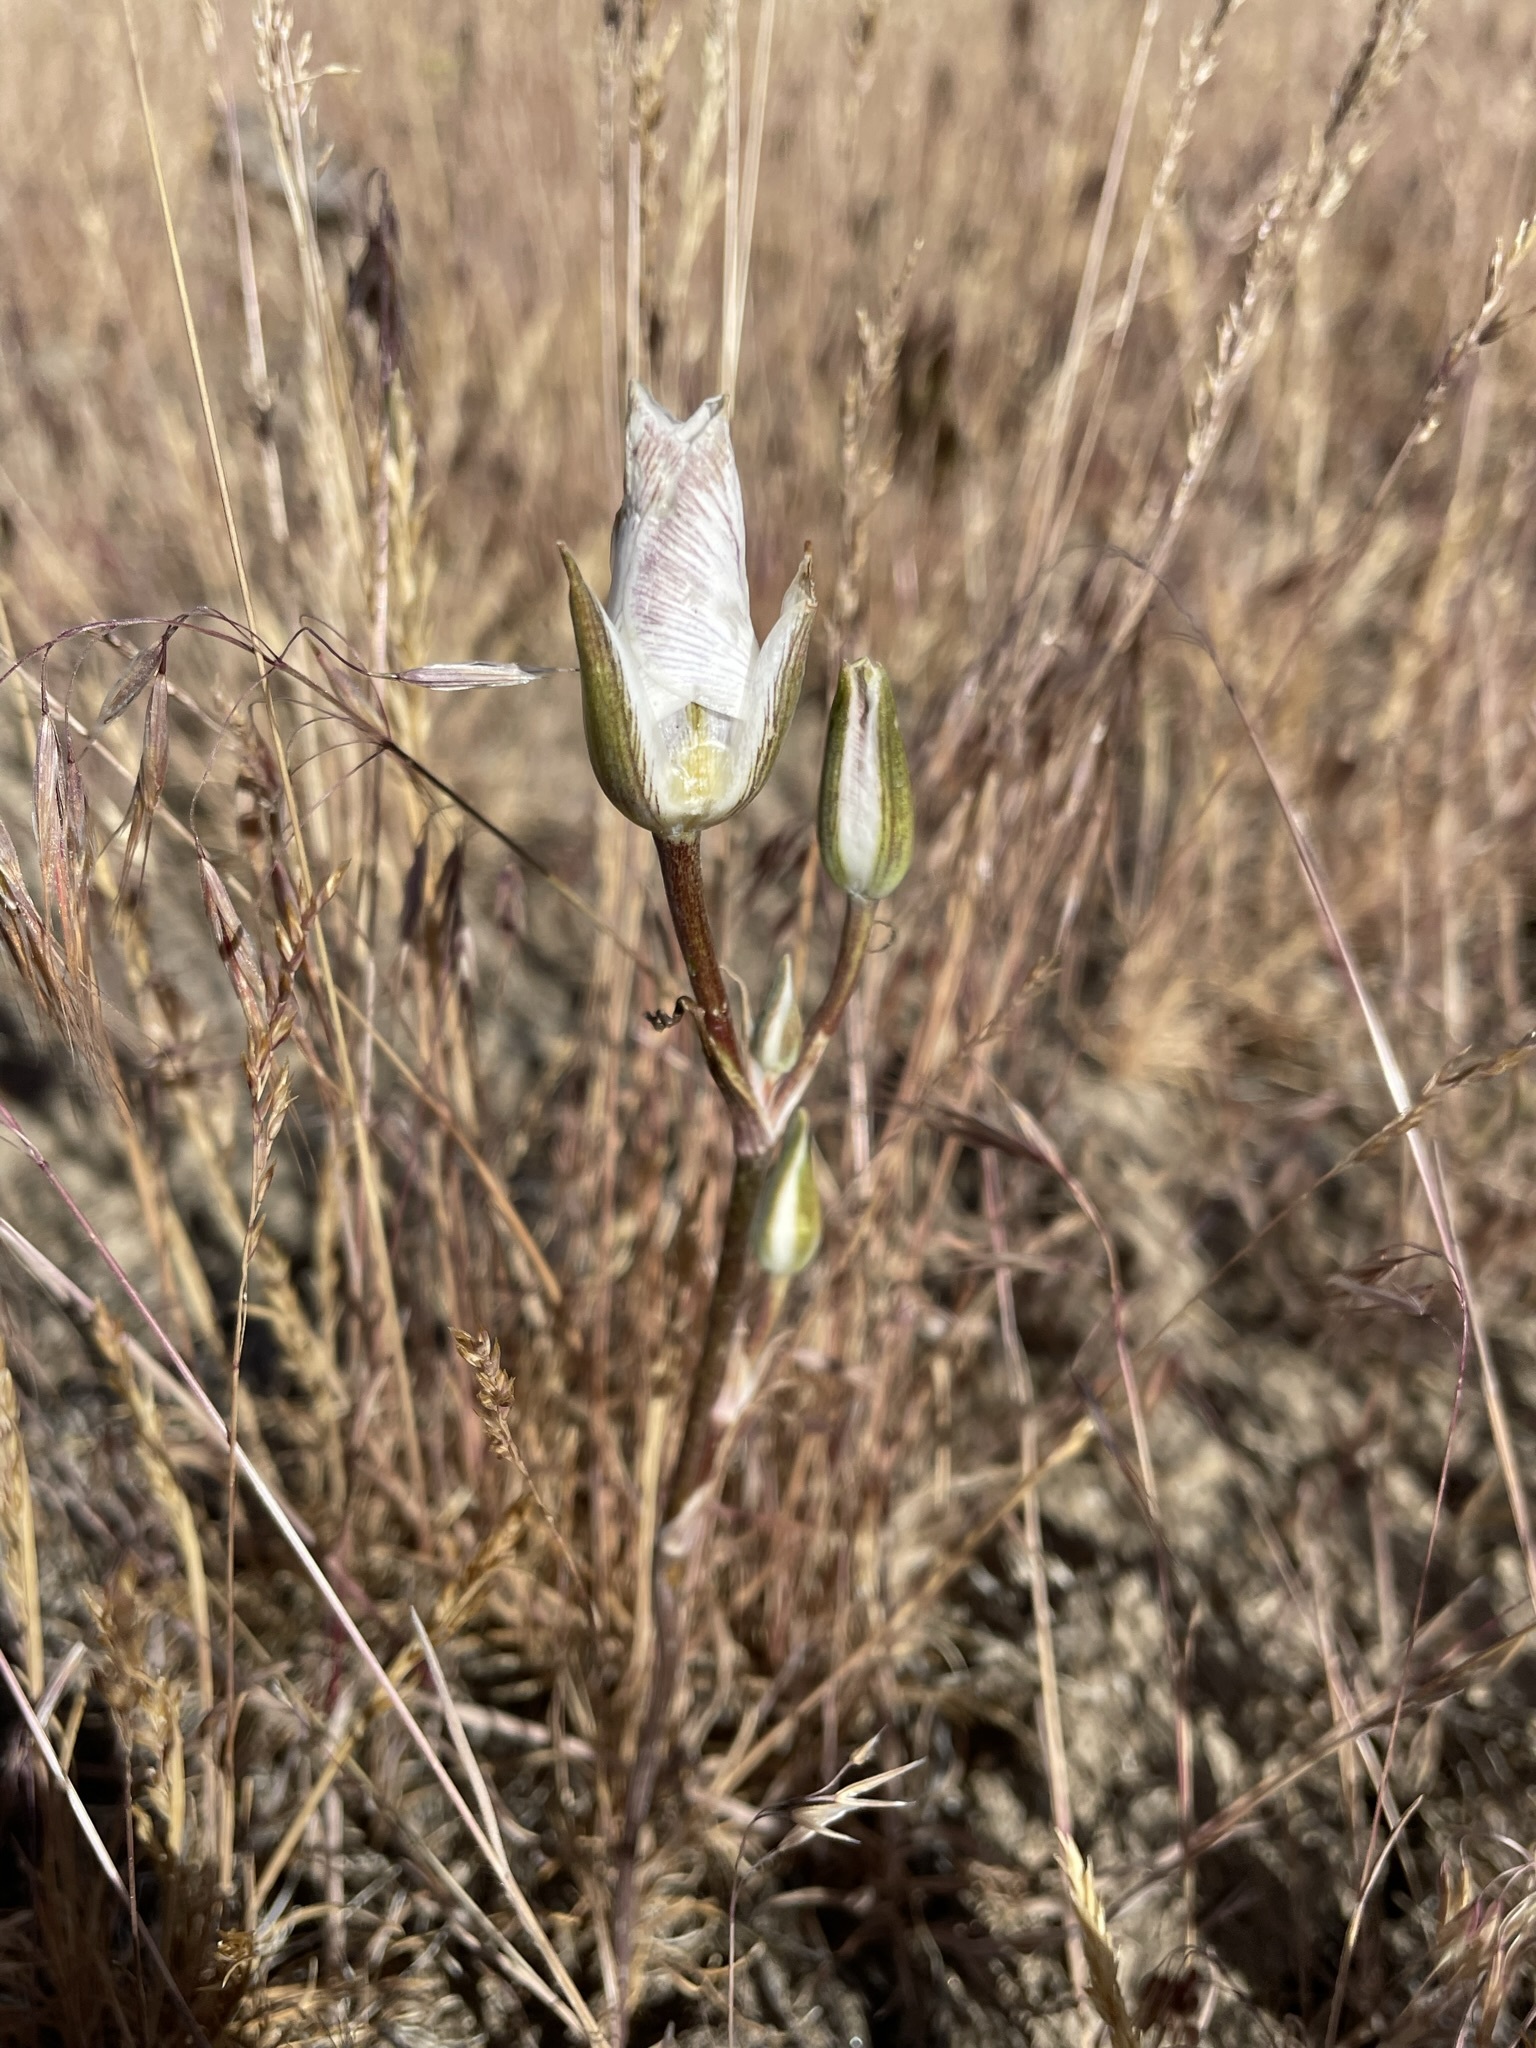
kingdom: Plantae
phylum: Tracheophyta
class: Liliopsida
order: Liliales
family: Liliaceae
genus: Calochortus
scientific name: Calochortus bruneaunis
